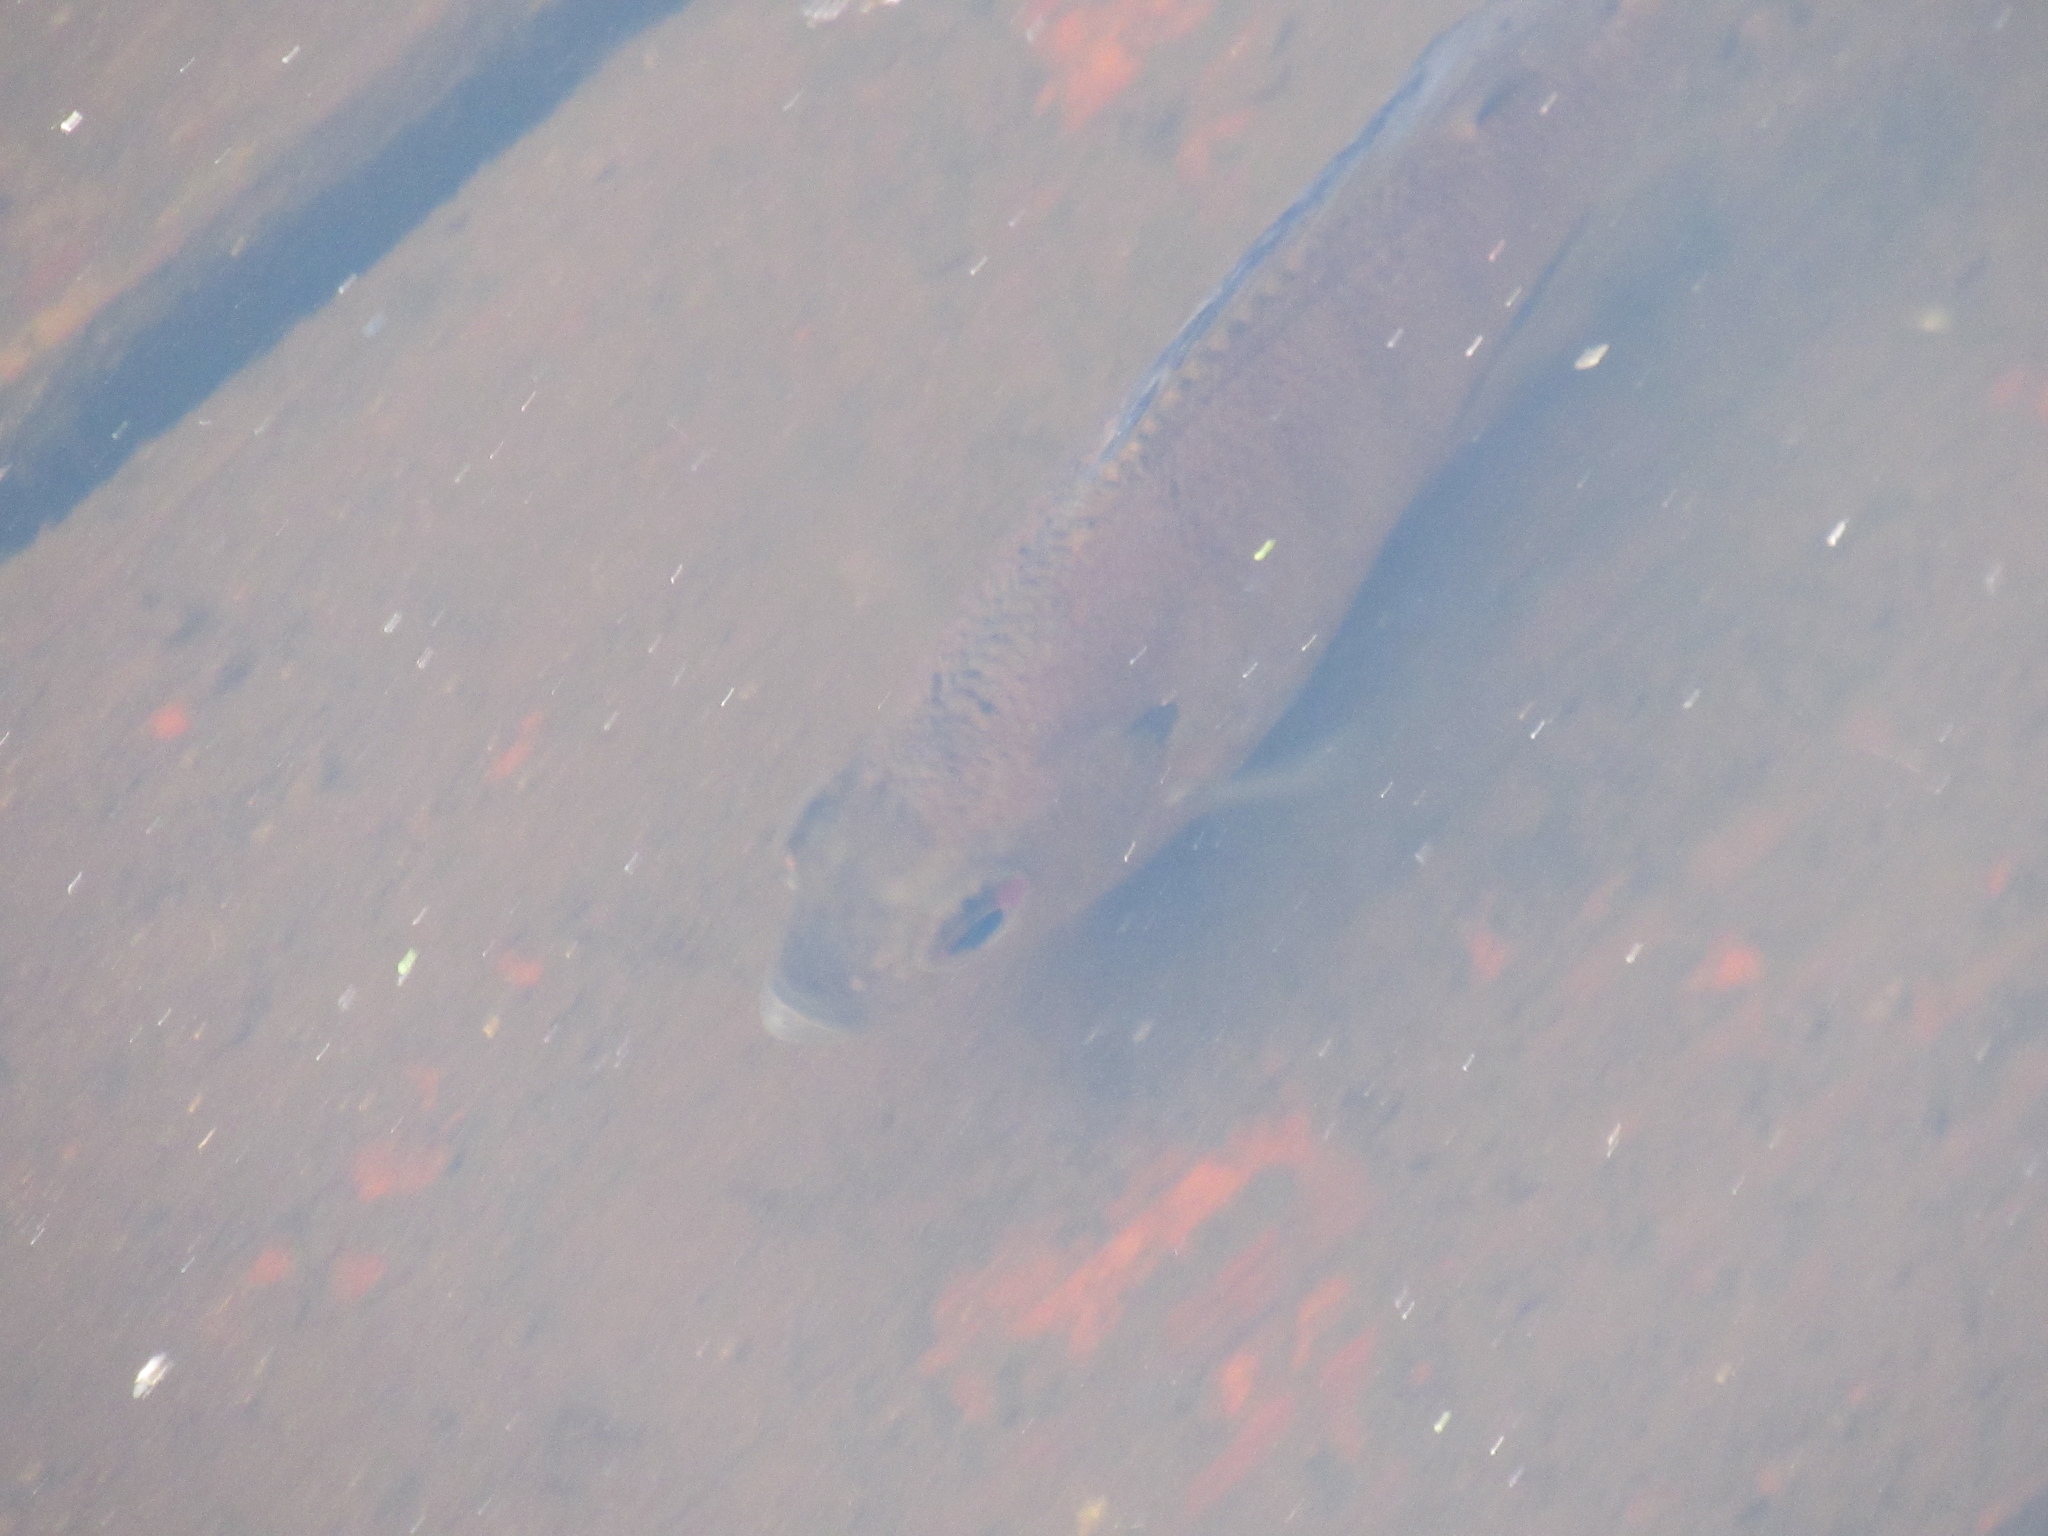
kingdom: Animalia
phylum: Chordata
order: Perciformes
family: Centrarchidae
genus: Lepomis
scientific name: Lepomis macrochirus
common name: Bluegill
